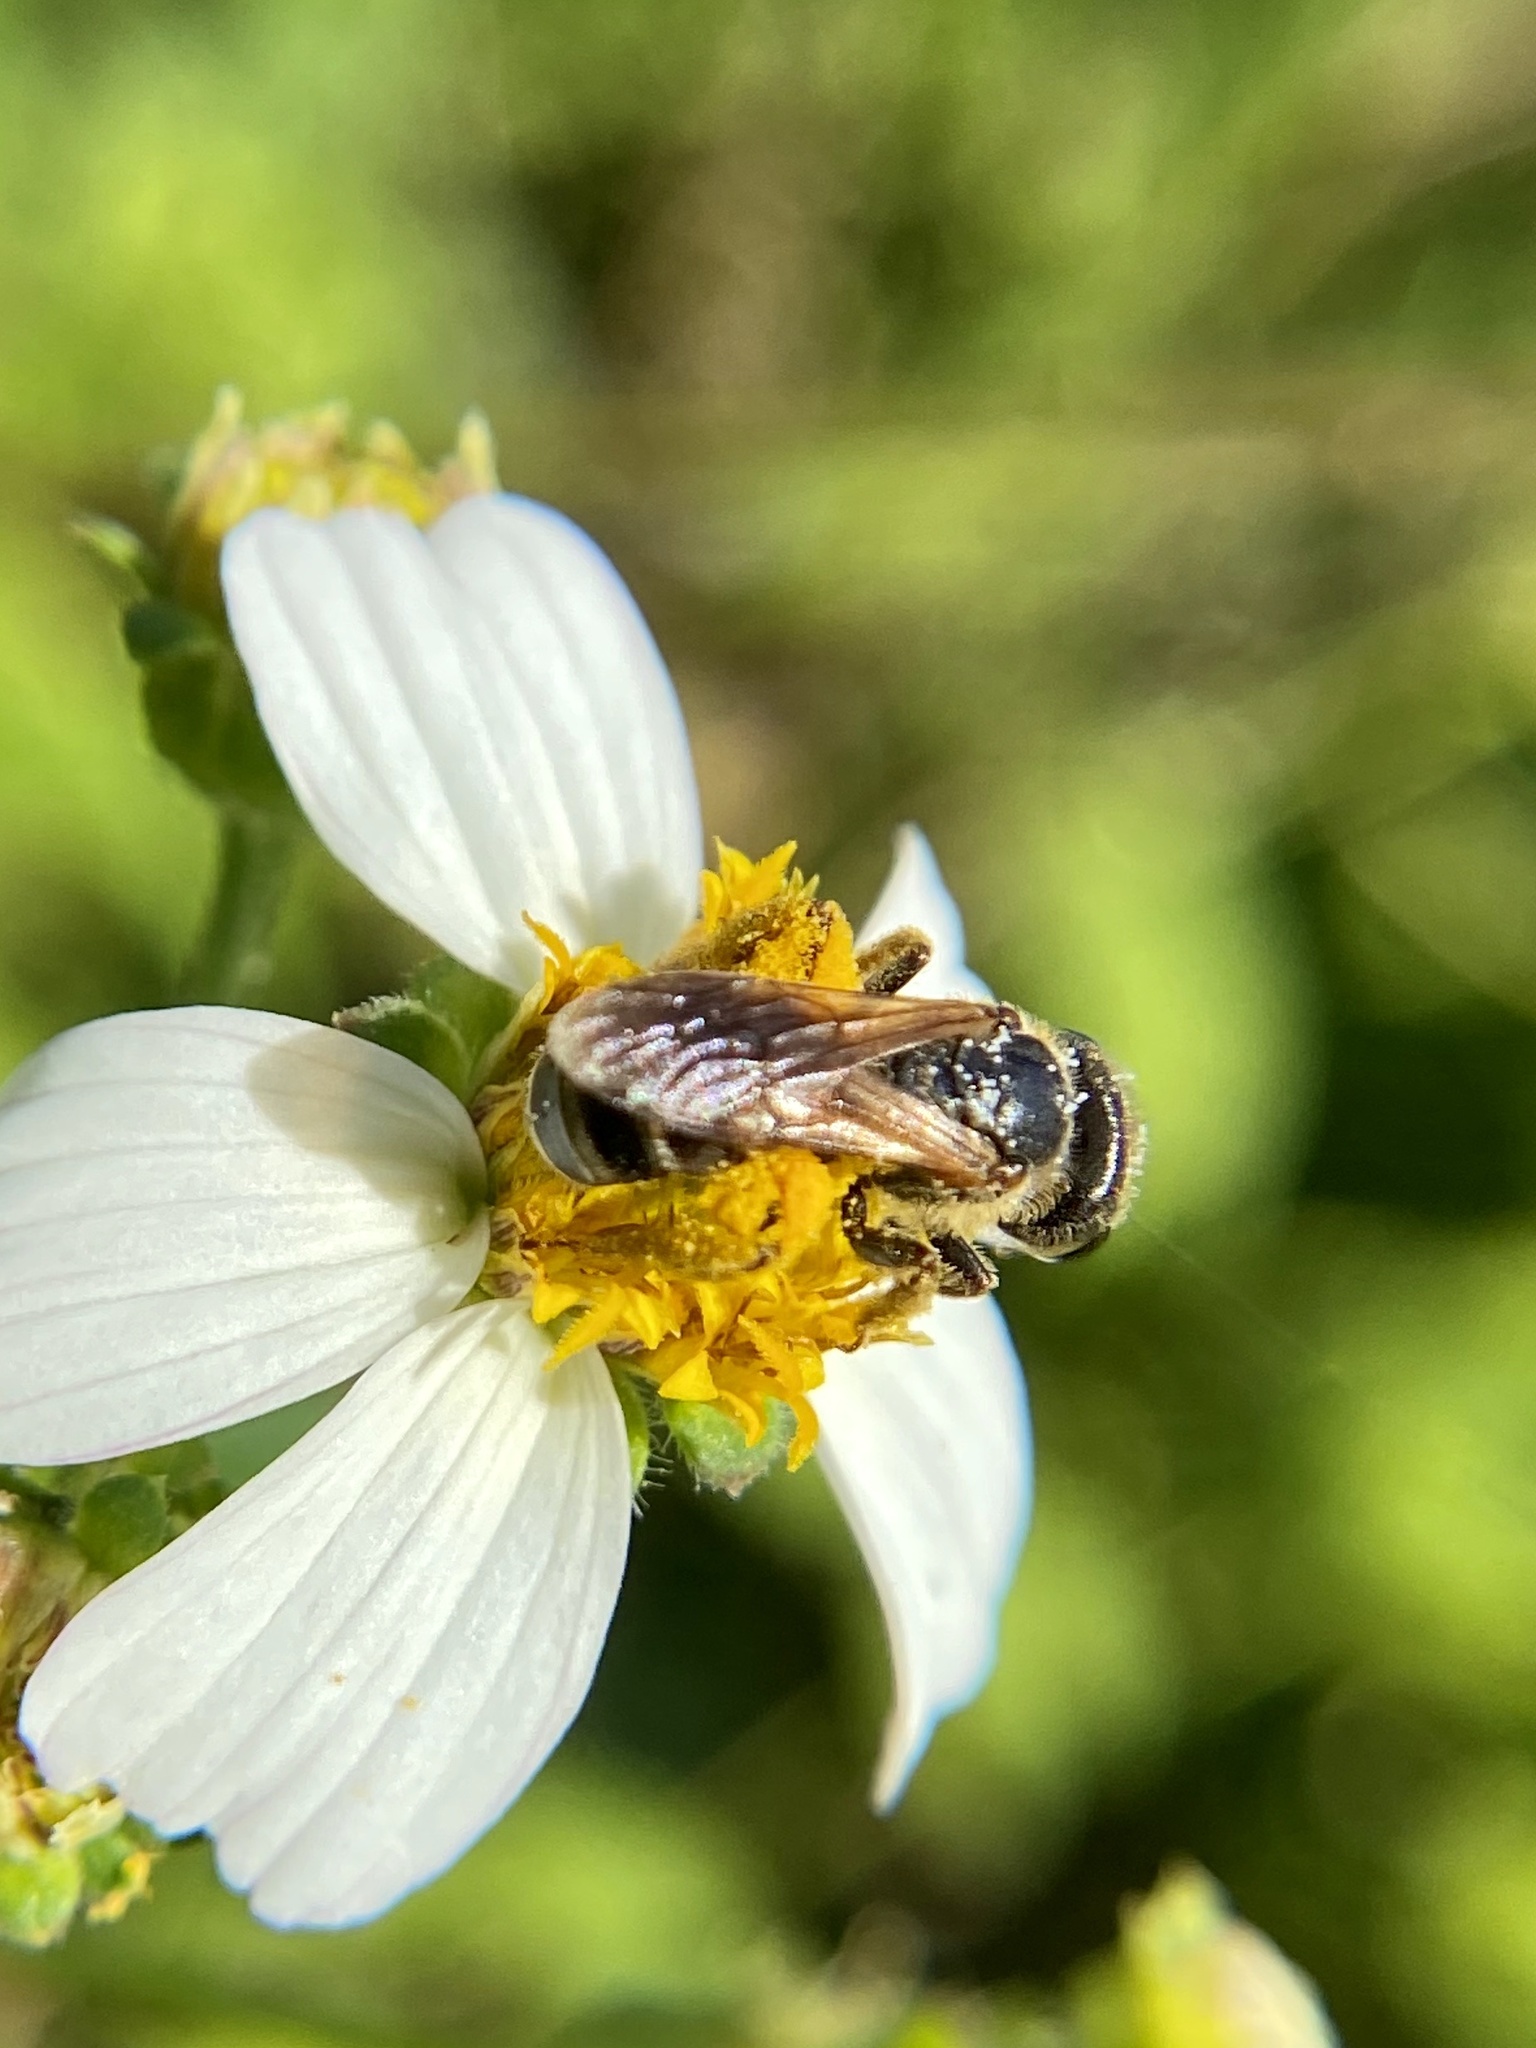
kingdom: Animalia
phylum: Arthropoda
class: Insecta
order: Hymenoptera
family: Halictidae
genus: Halictus
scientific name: Halictus poeyi
